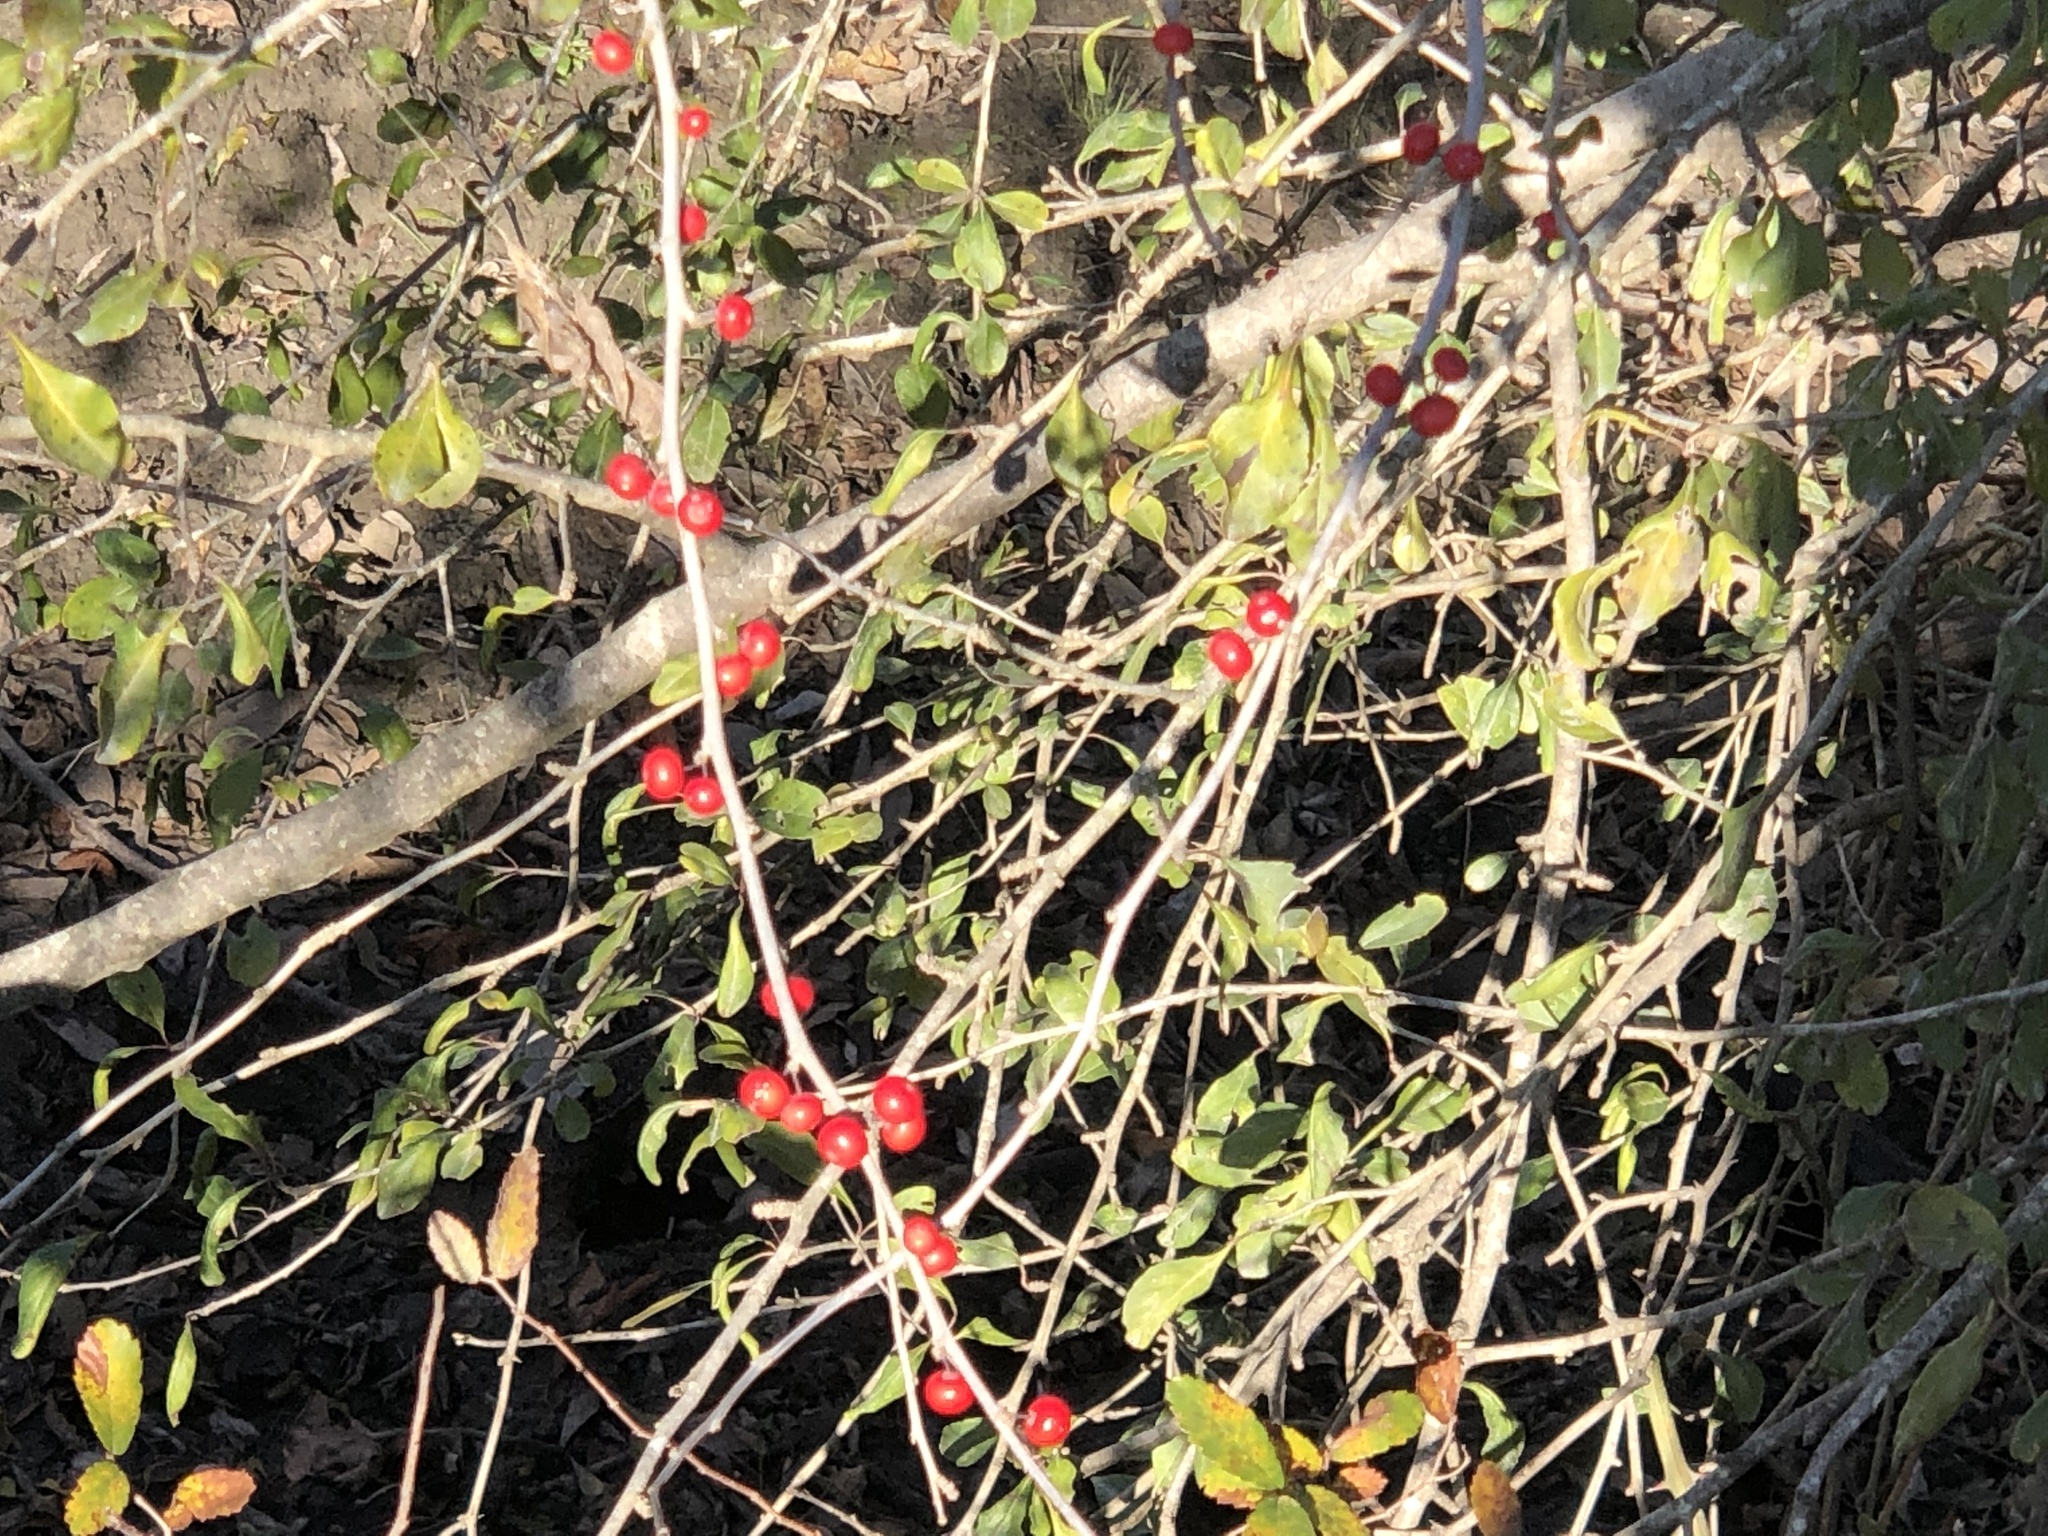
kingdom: Plantae
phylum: Tracheophyta
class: Magnoliopsida
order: Aquifoliales
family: Aquifoliaceae
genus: Ilex
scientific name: Ilex decidua
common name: Possum-haw
